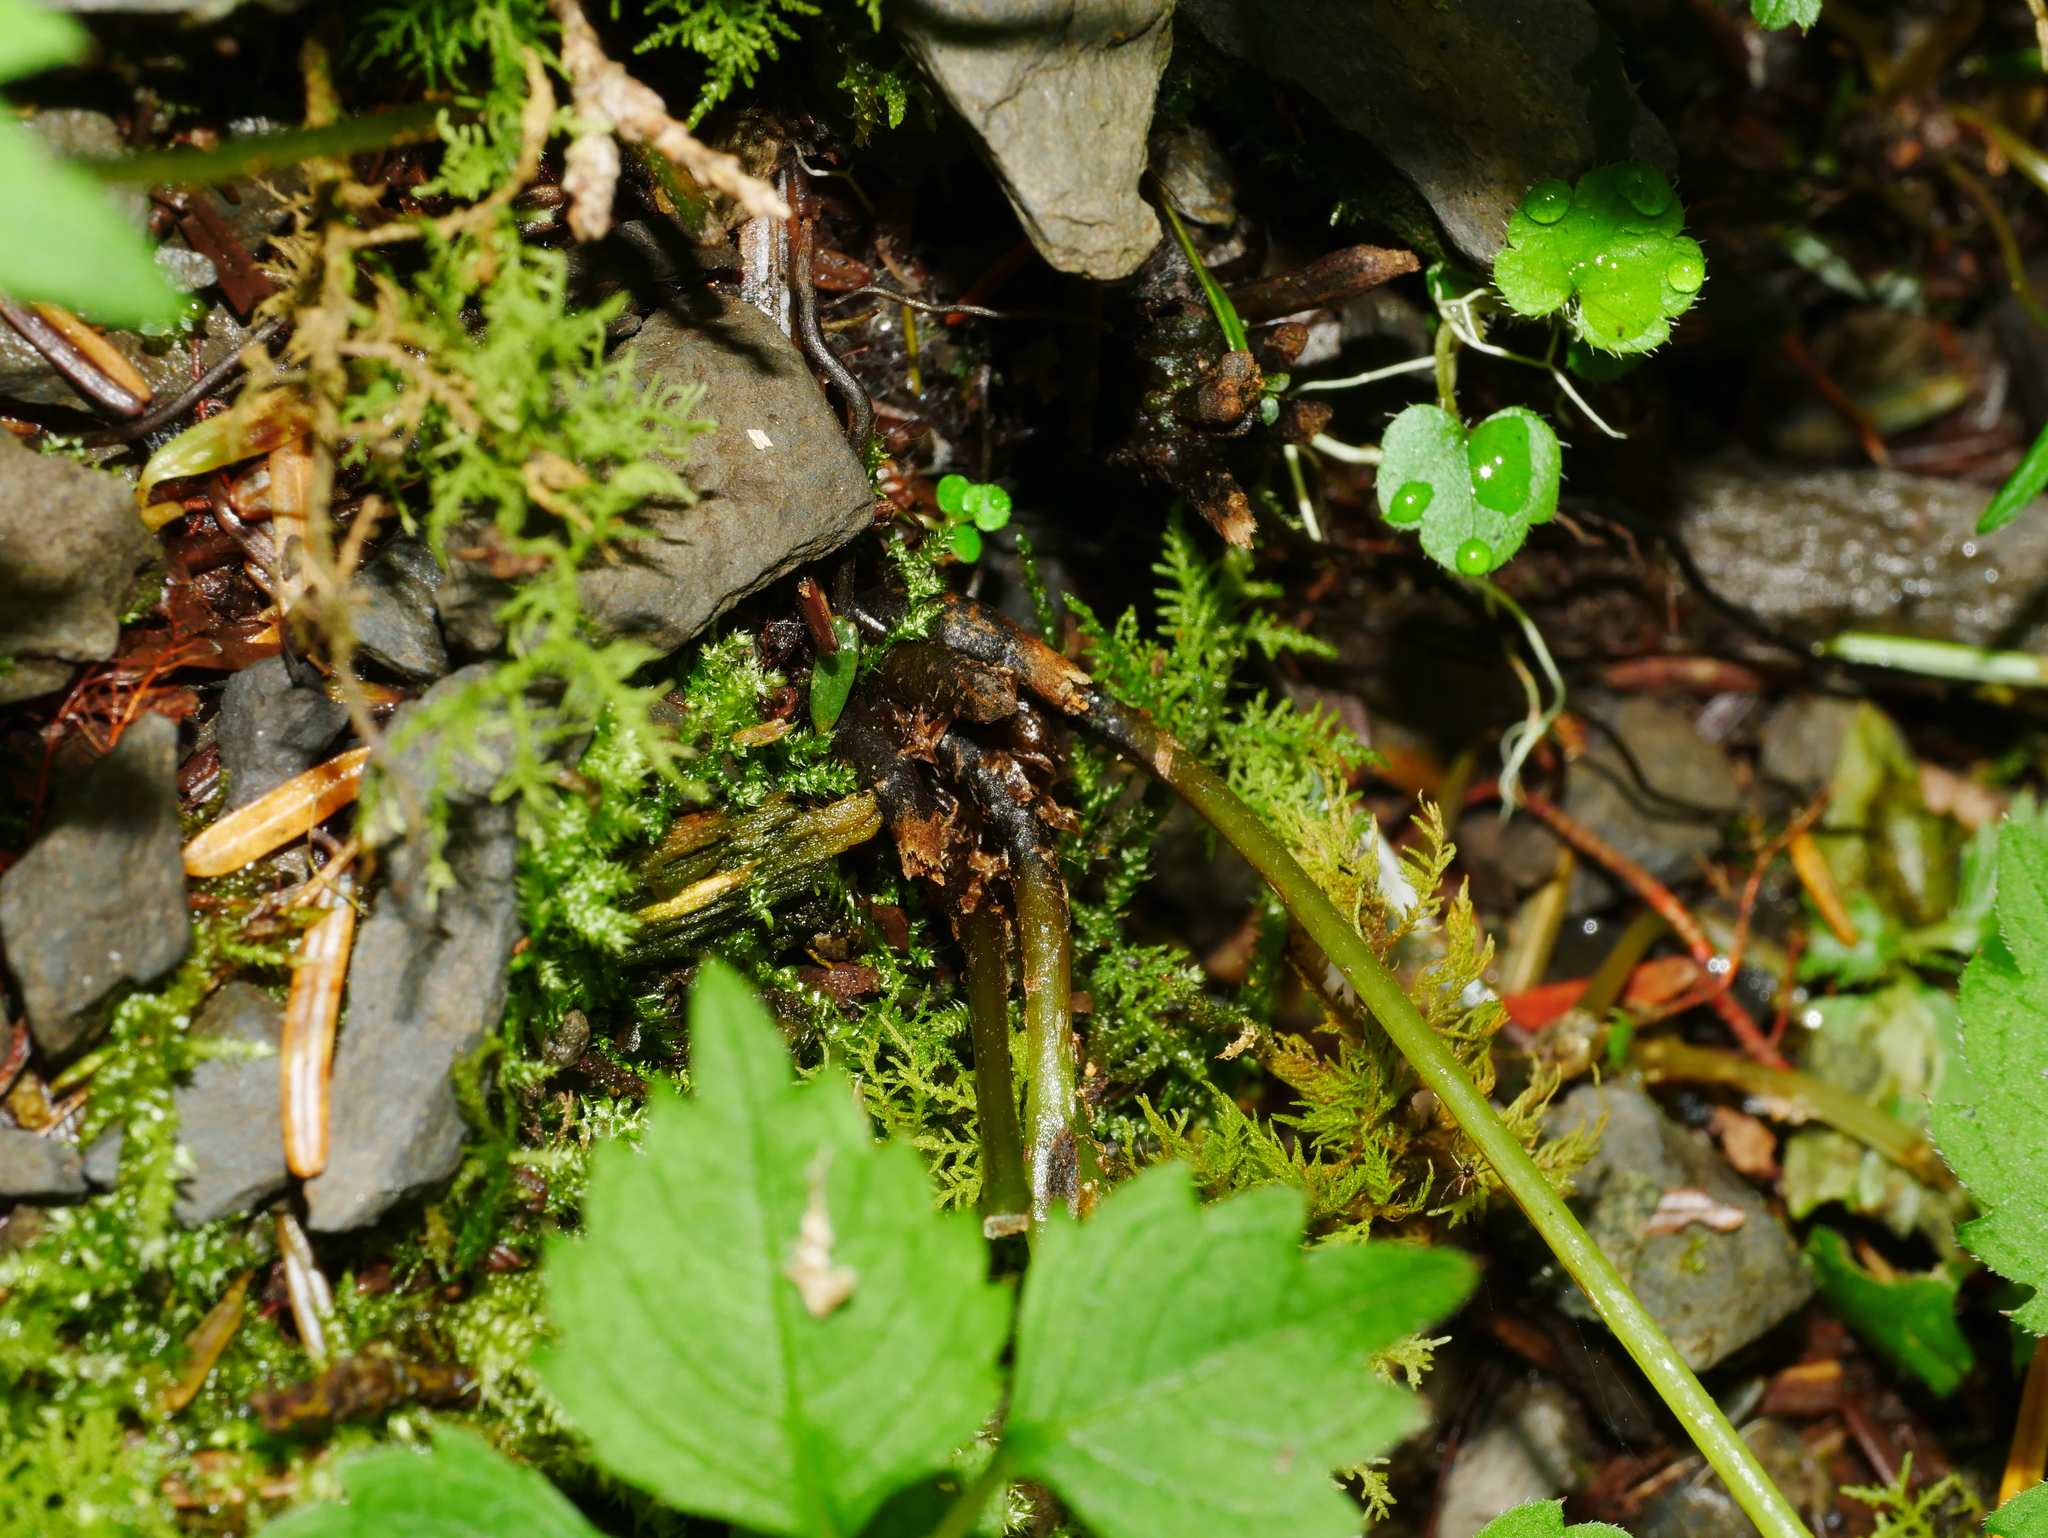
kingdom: Plantae
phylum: Tracheophyta
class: Polypodiopsida
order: Polypodiales
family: Athyriaceae
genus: Athyrium
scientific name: Athyrium nigripes
